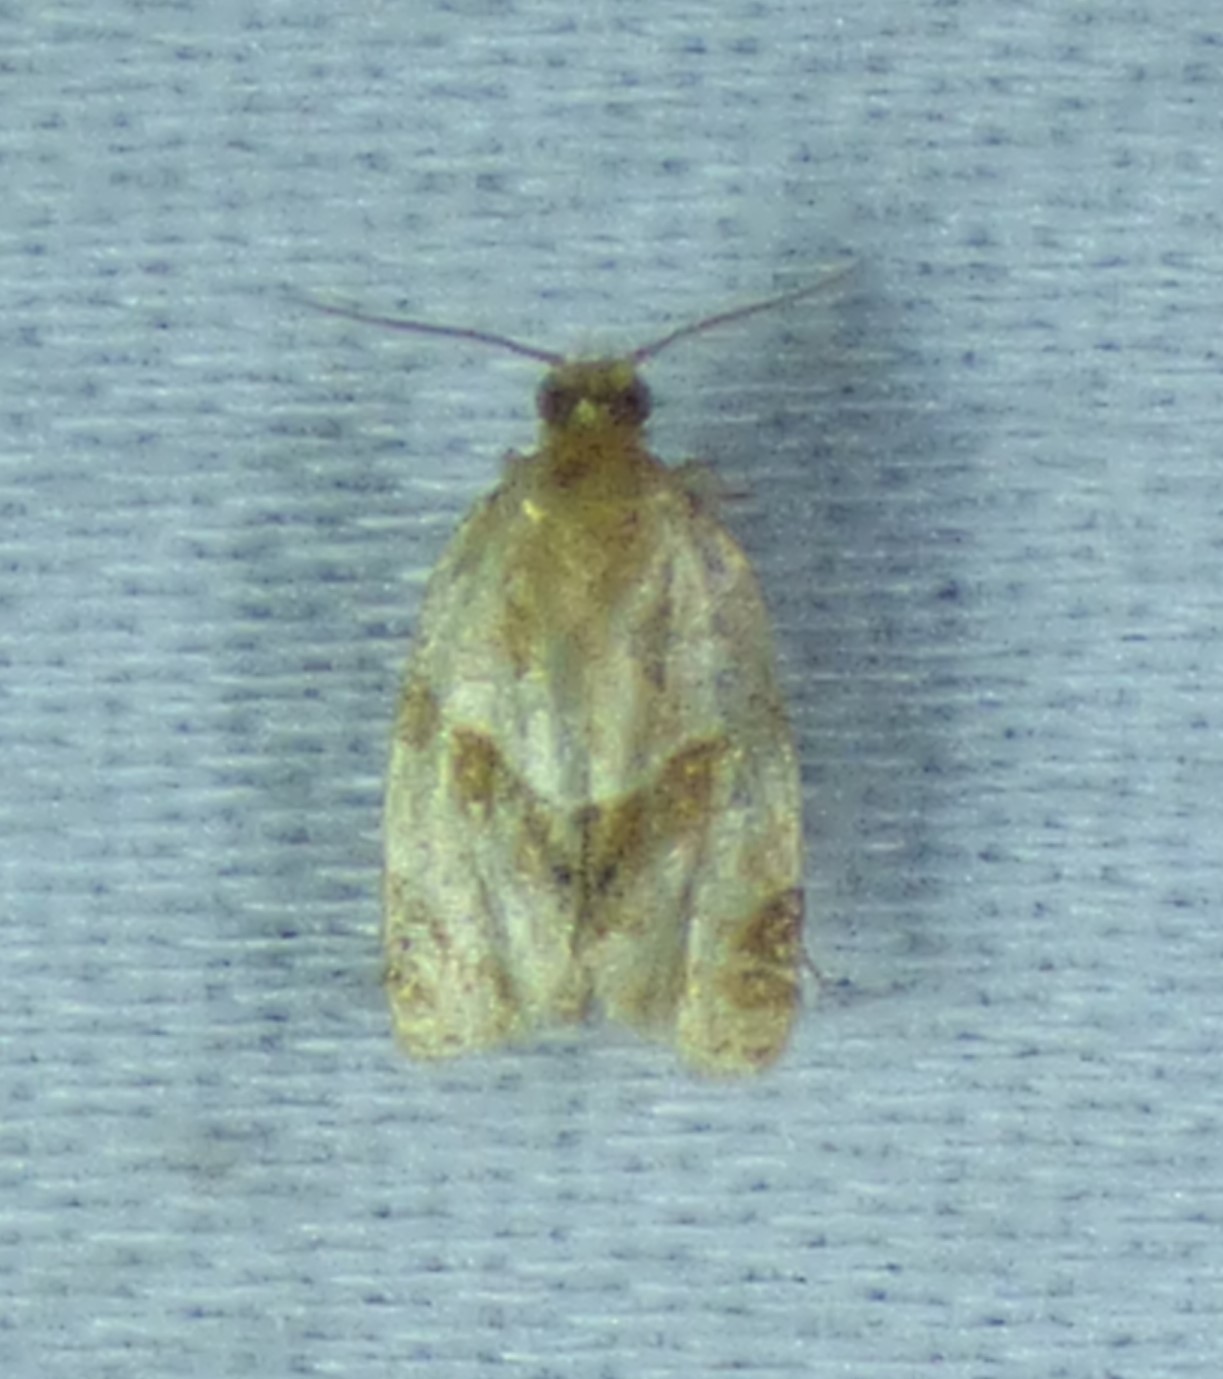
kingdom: Animalia
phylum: Arthropoda
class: Insecta
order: Lepidoptera
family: Tortricidae
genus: Clepsis
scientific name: Clepsis peritana
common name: Garden tortrix
